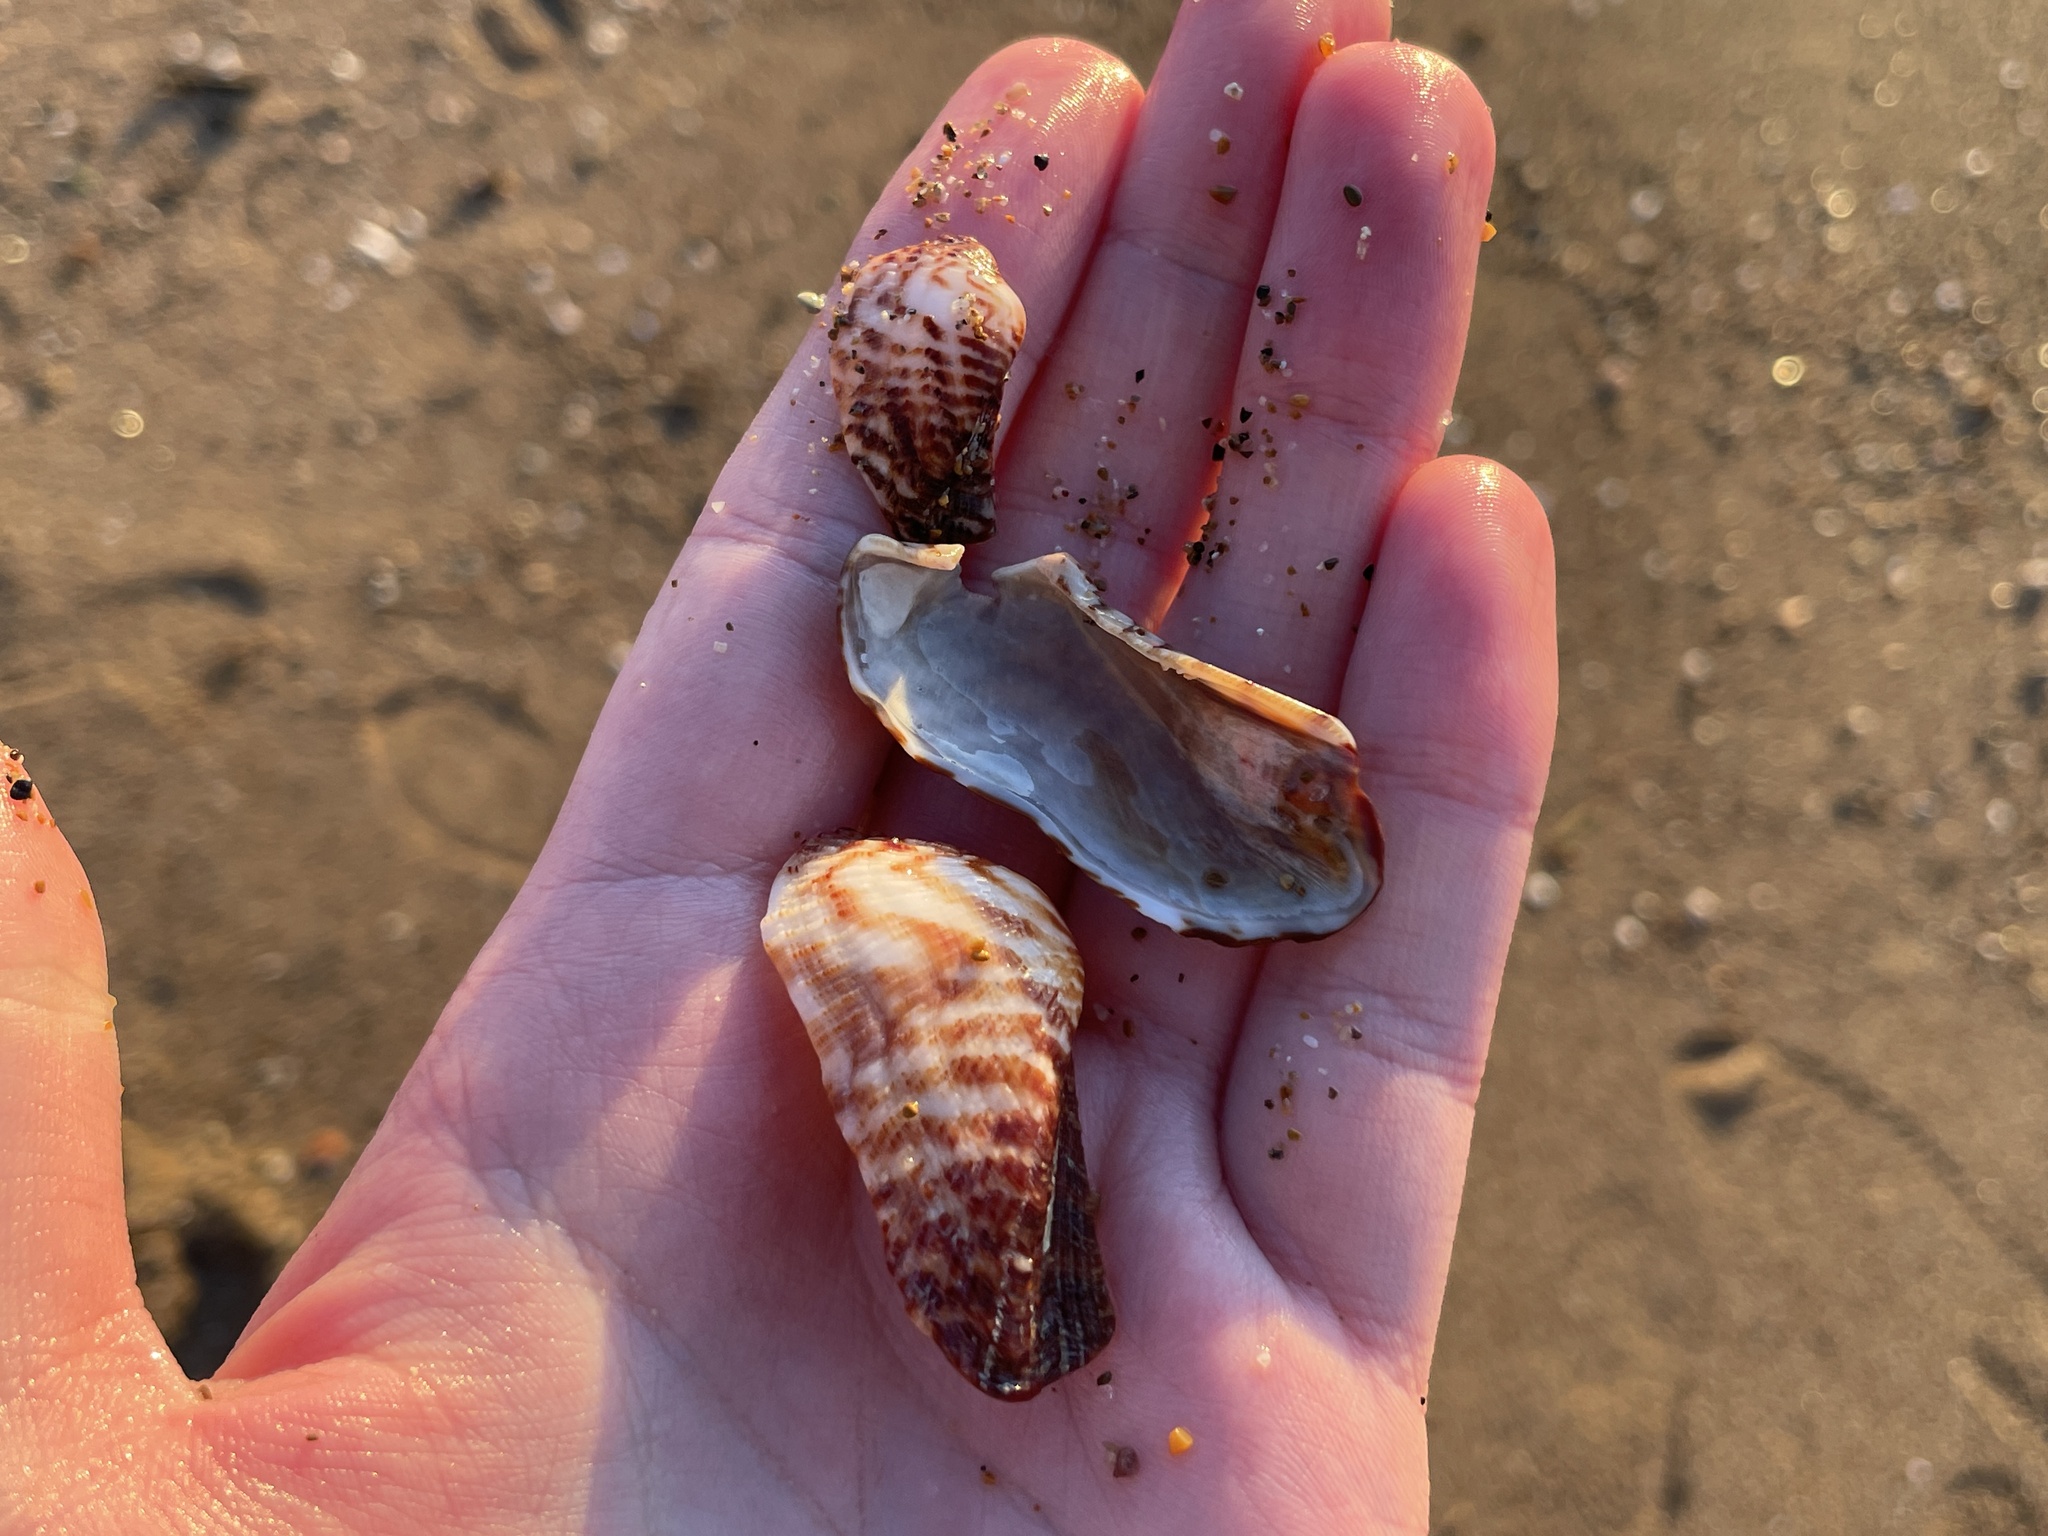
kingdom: Animalia
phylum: Mollusca
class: Bivalvia
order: Arcida
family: Arcidae
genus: Arca
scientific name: Arca noae
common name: Noah's arch
